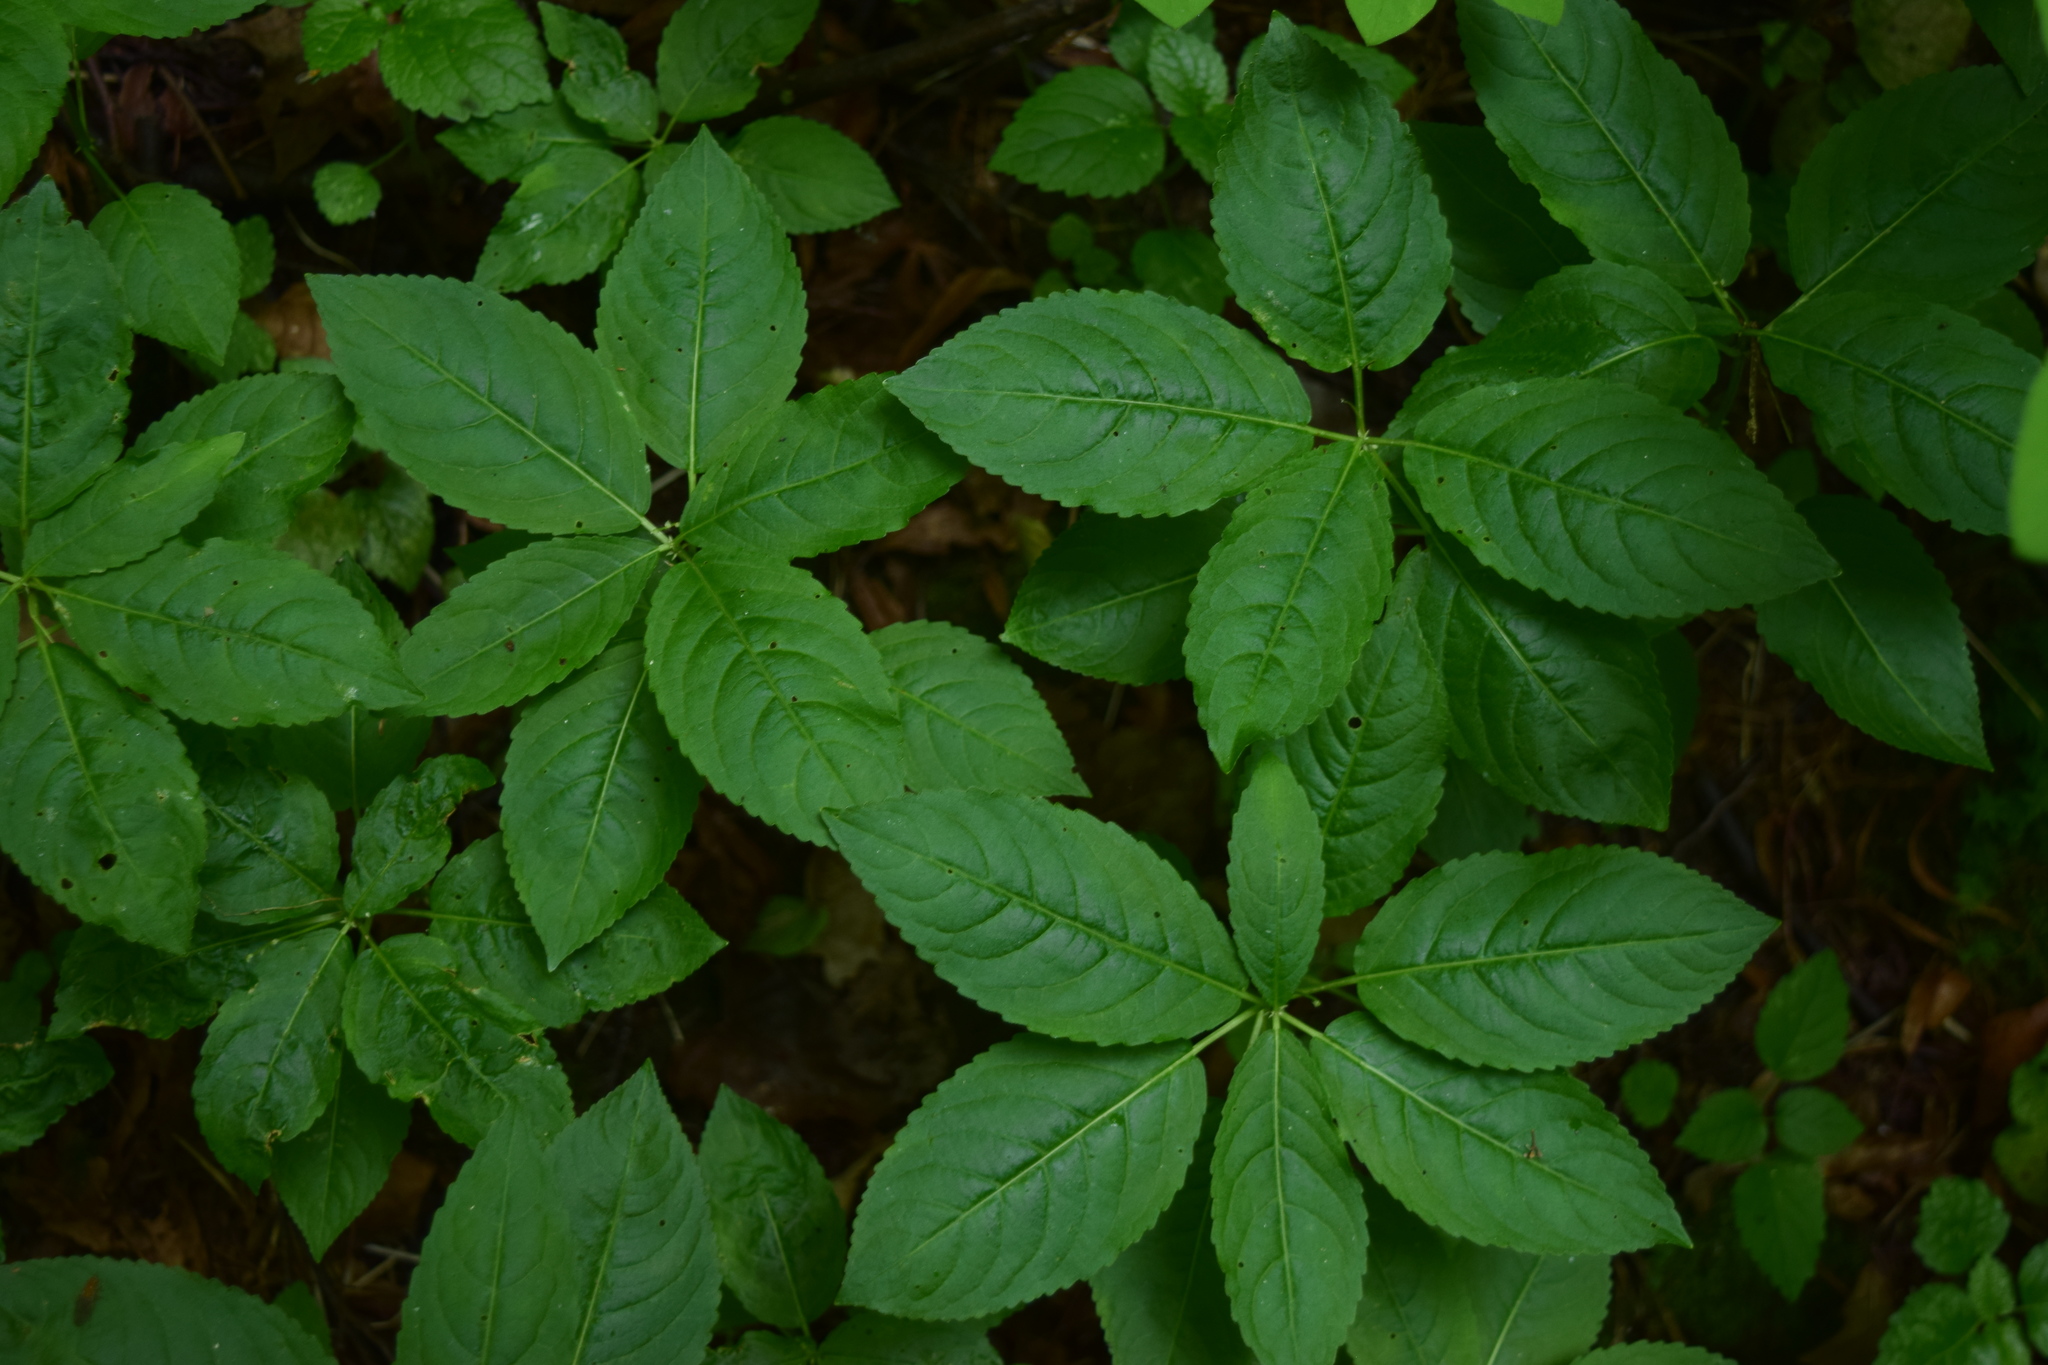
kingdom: Plantae
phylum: Tracheophyta
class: Magnoliopsida
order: Malpighiales
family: Euphorbiaceae
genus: Mercurialis
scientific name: Mercurialis perennis
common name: Dog mercury
